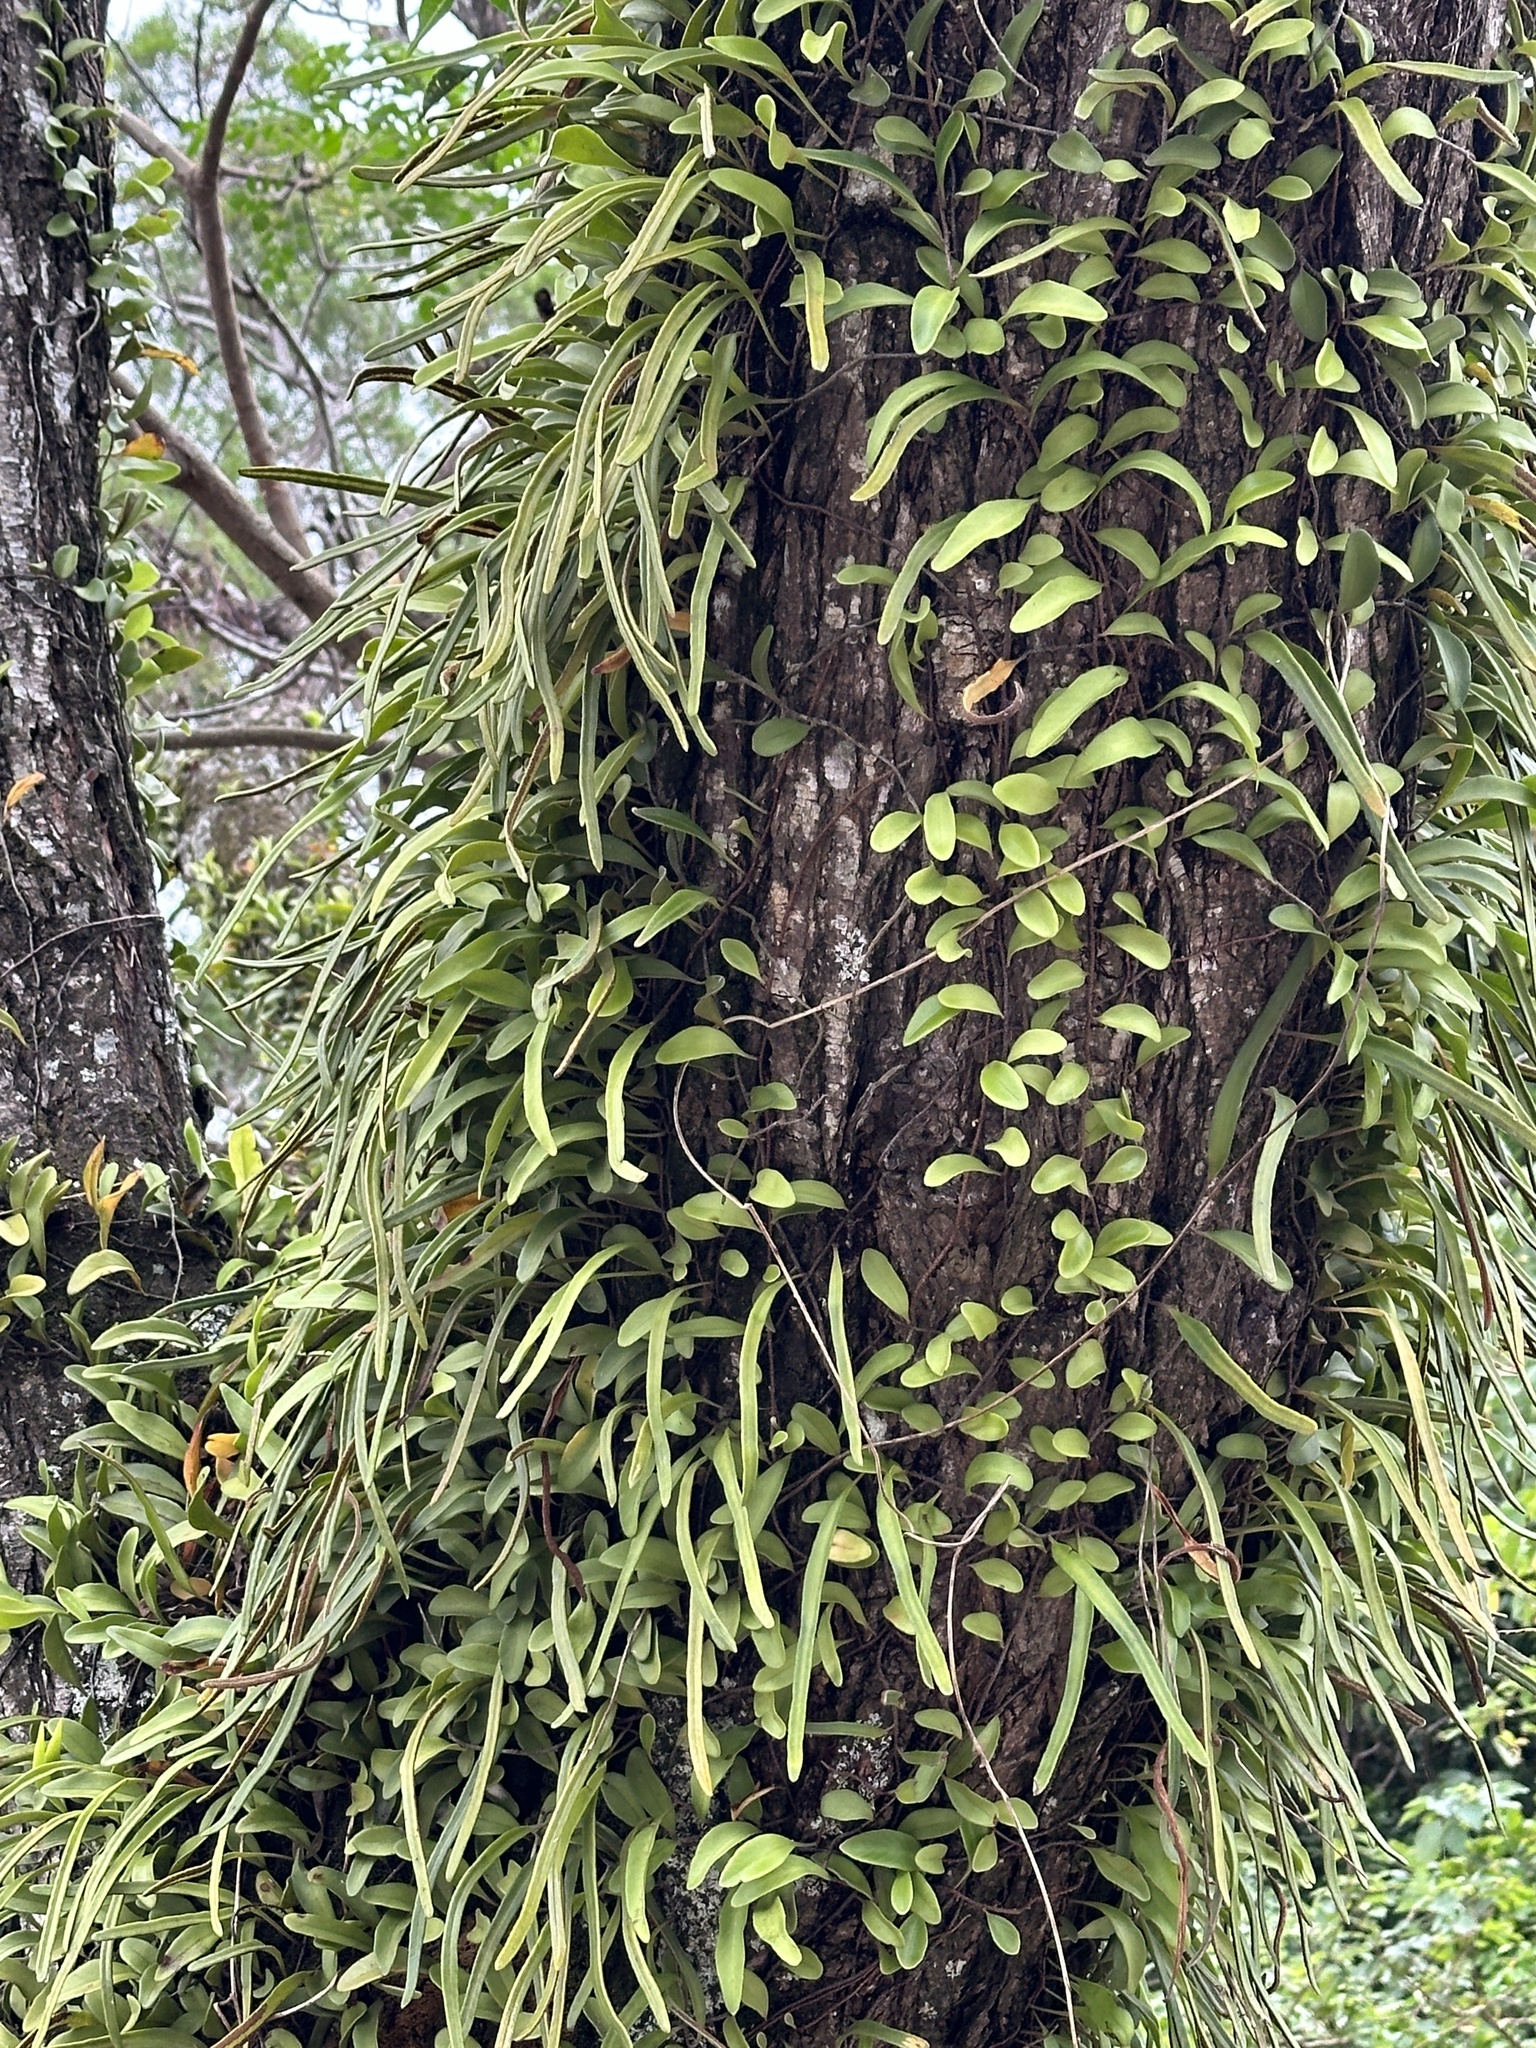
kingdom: Plantae
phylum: Tracheophyta
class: Polypodiopsida
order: Polypodiales
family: Polypodiaceae
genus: Pyrrosia
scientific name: Pyrrosia lanceolata
